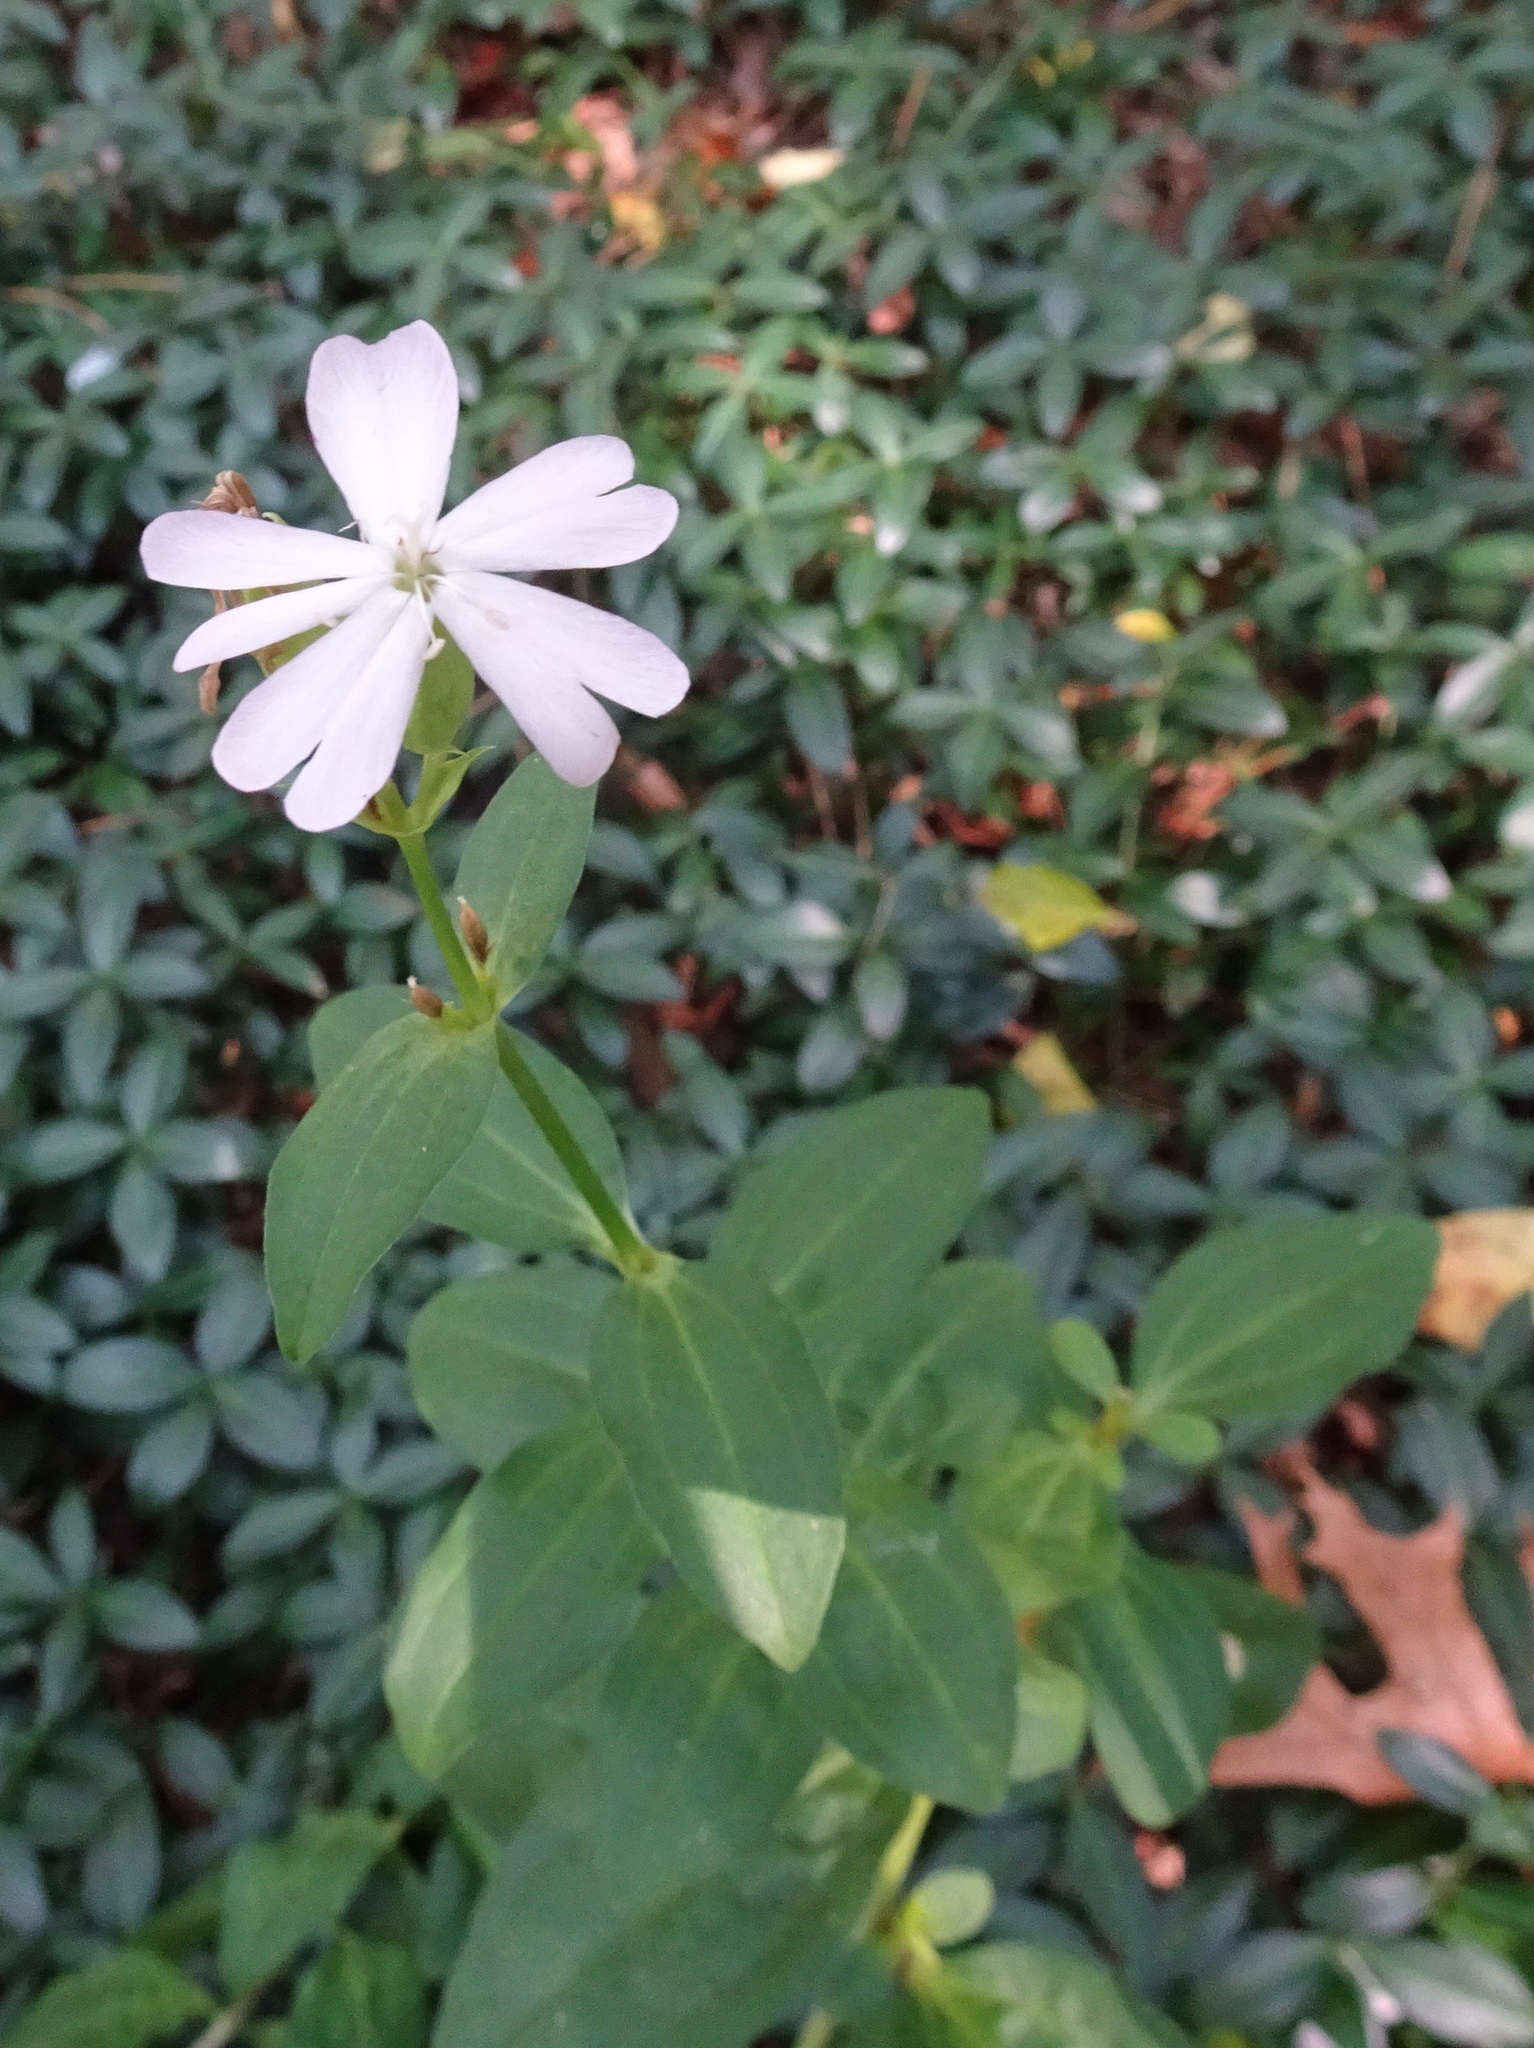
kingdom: Plantae
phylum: Tracheophyta
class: Magnoliopsida
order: Caryophyllales
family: Caryophyllaceae
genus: Saponaria
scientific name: Saponaria officinalis
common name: Soapwort
